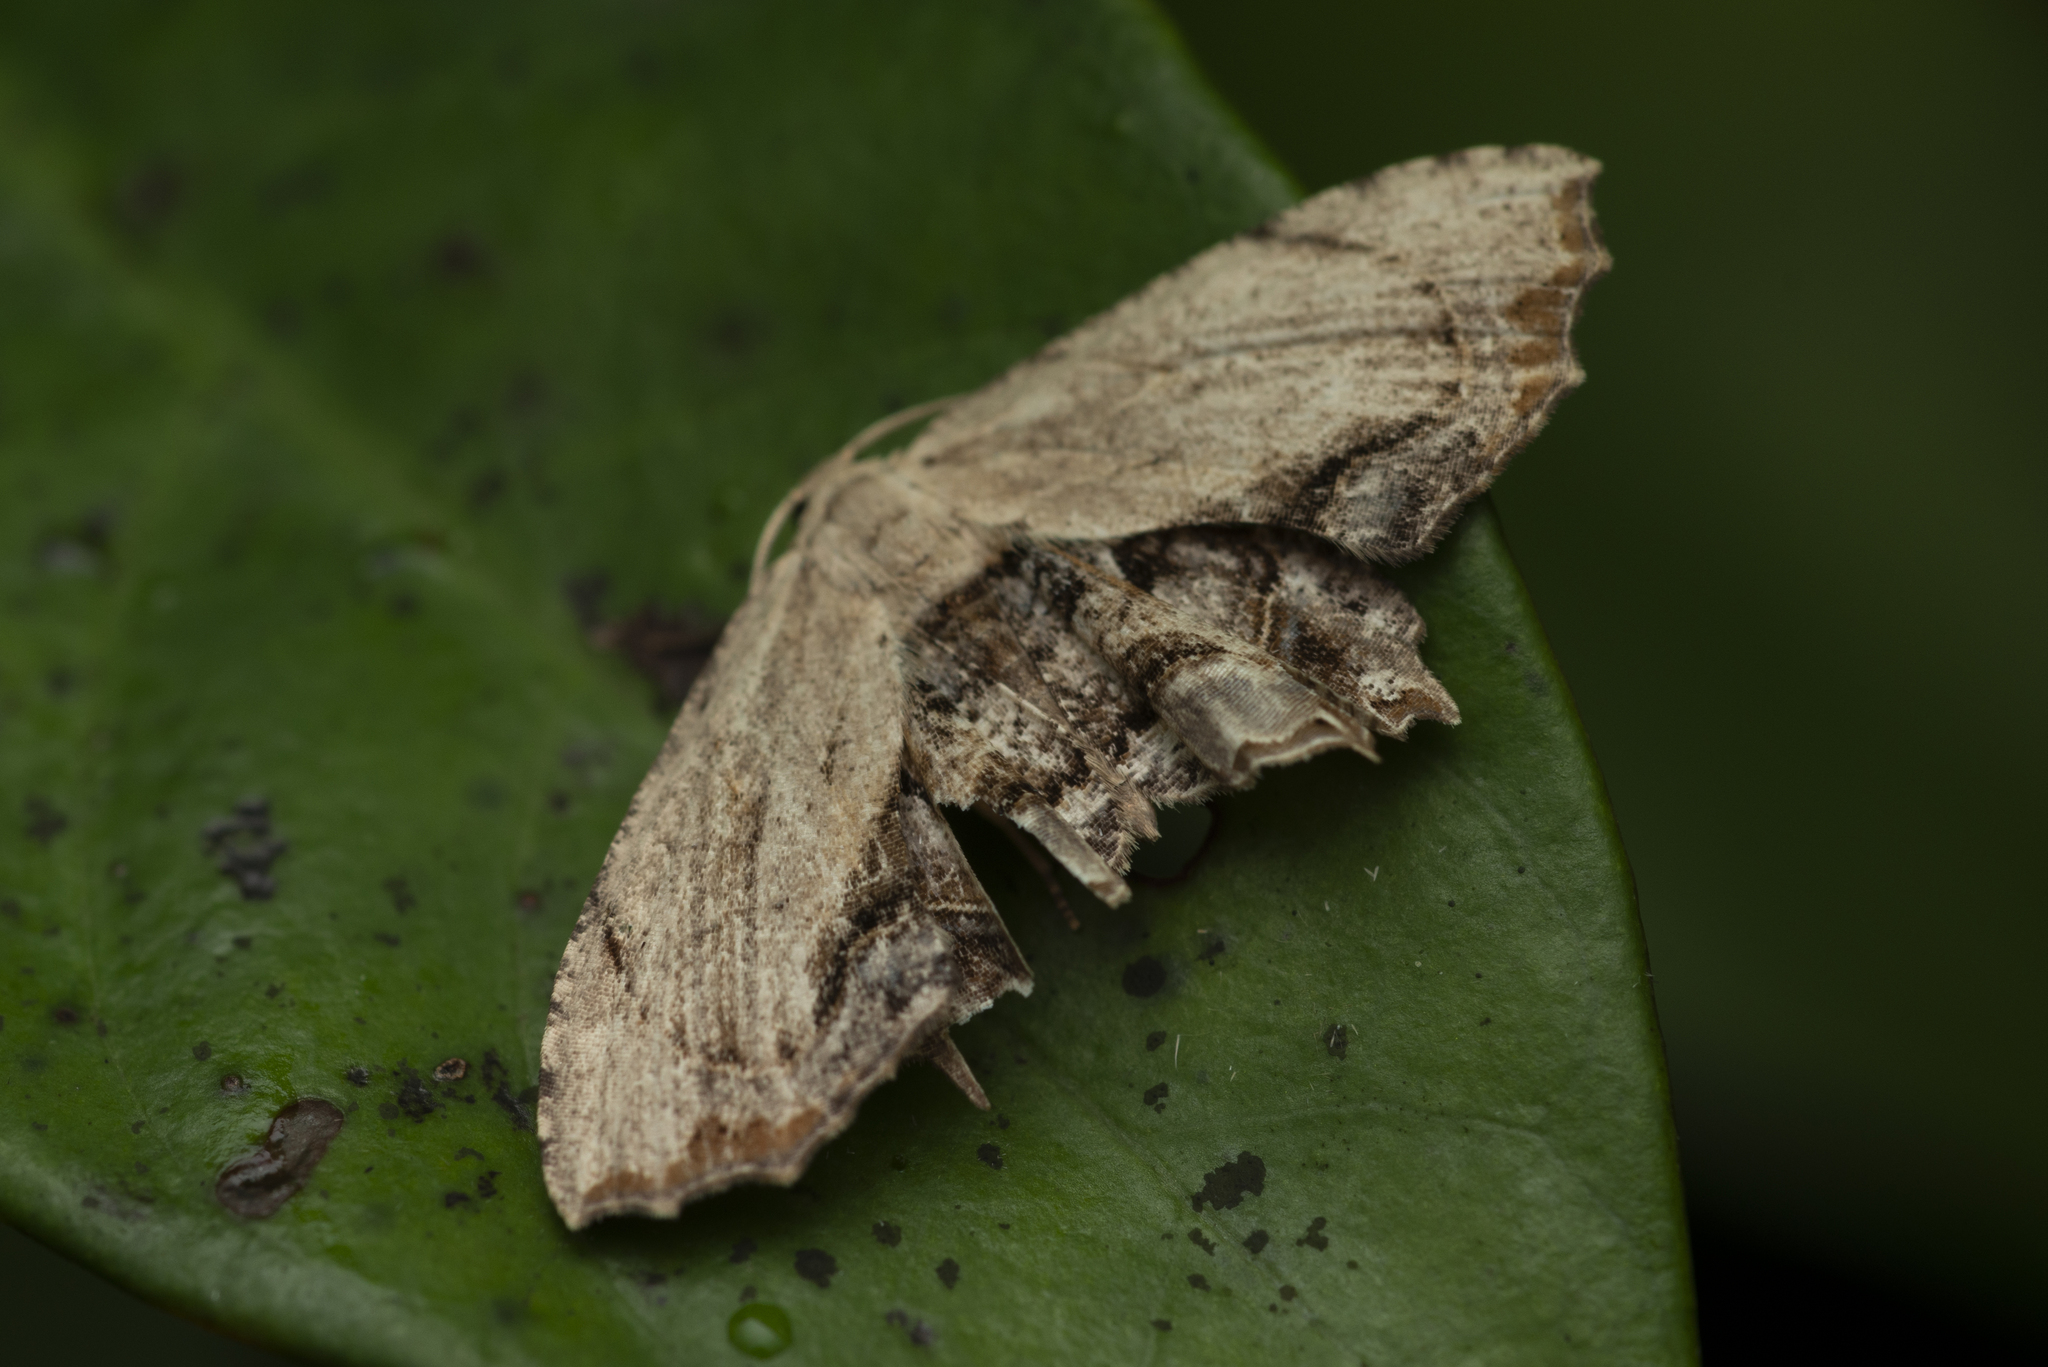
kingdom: Animalia
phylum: Arthropoda
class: Insecta
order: Lepidoptera
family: Uraniidae
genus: Dysaethria
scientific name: Dysaethria erasaria
